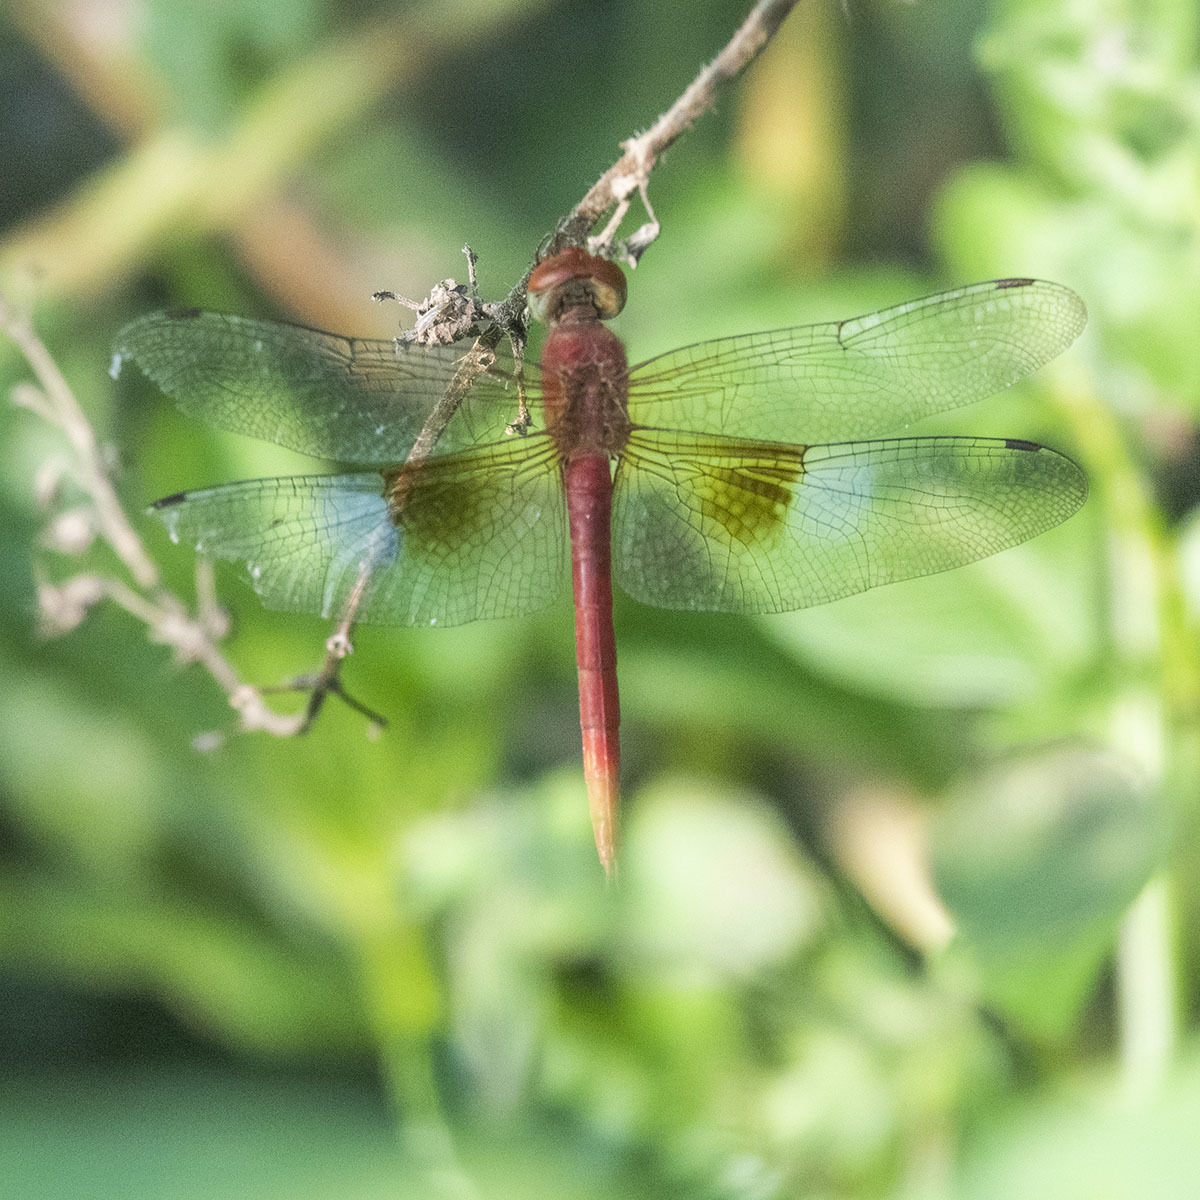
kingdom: Animalia
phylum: Arthropoda
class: Insecta
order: Odonata
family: Libellulidae
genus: Tholymis
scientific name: Tholymis tillarga
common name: Coral-tailed cloud wing
